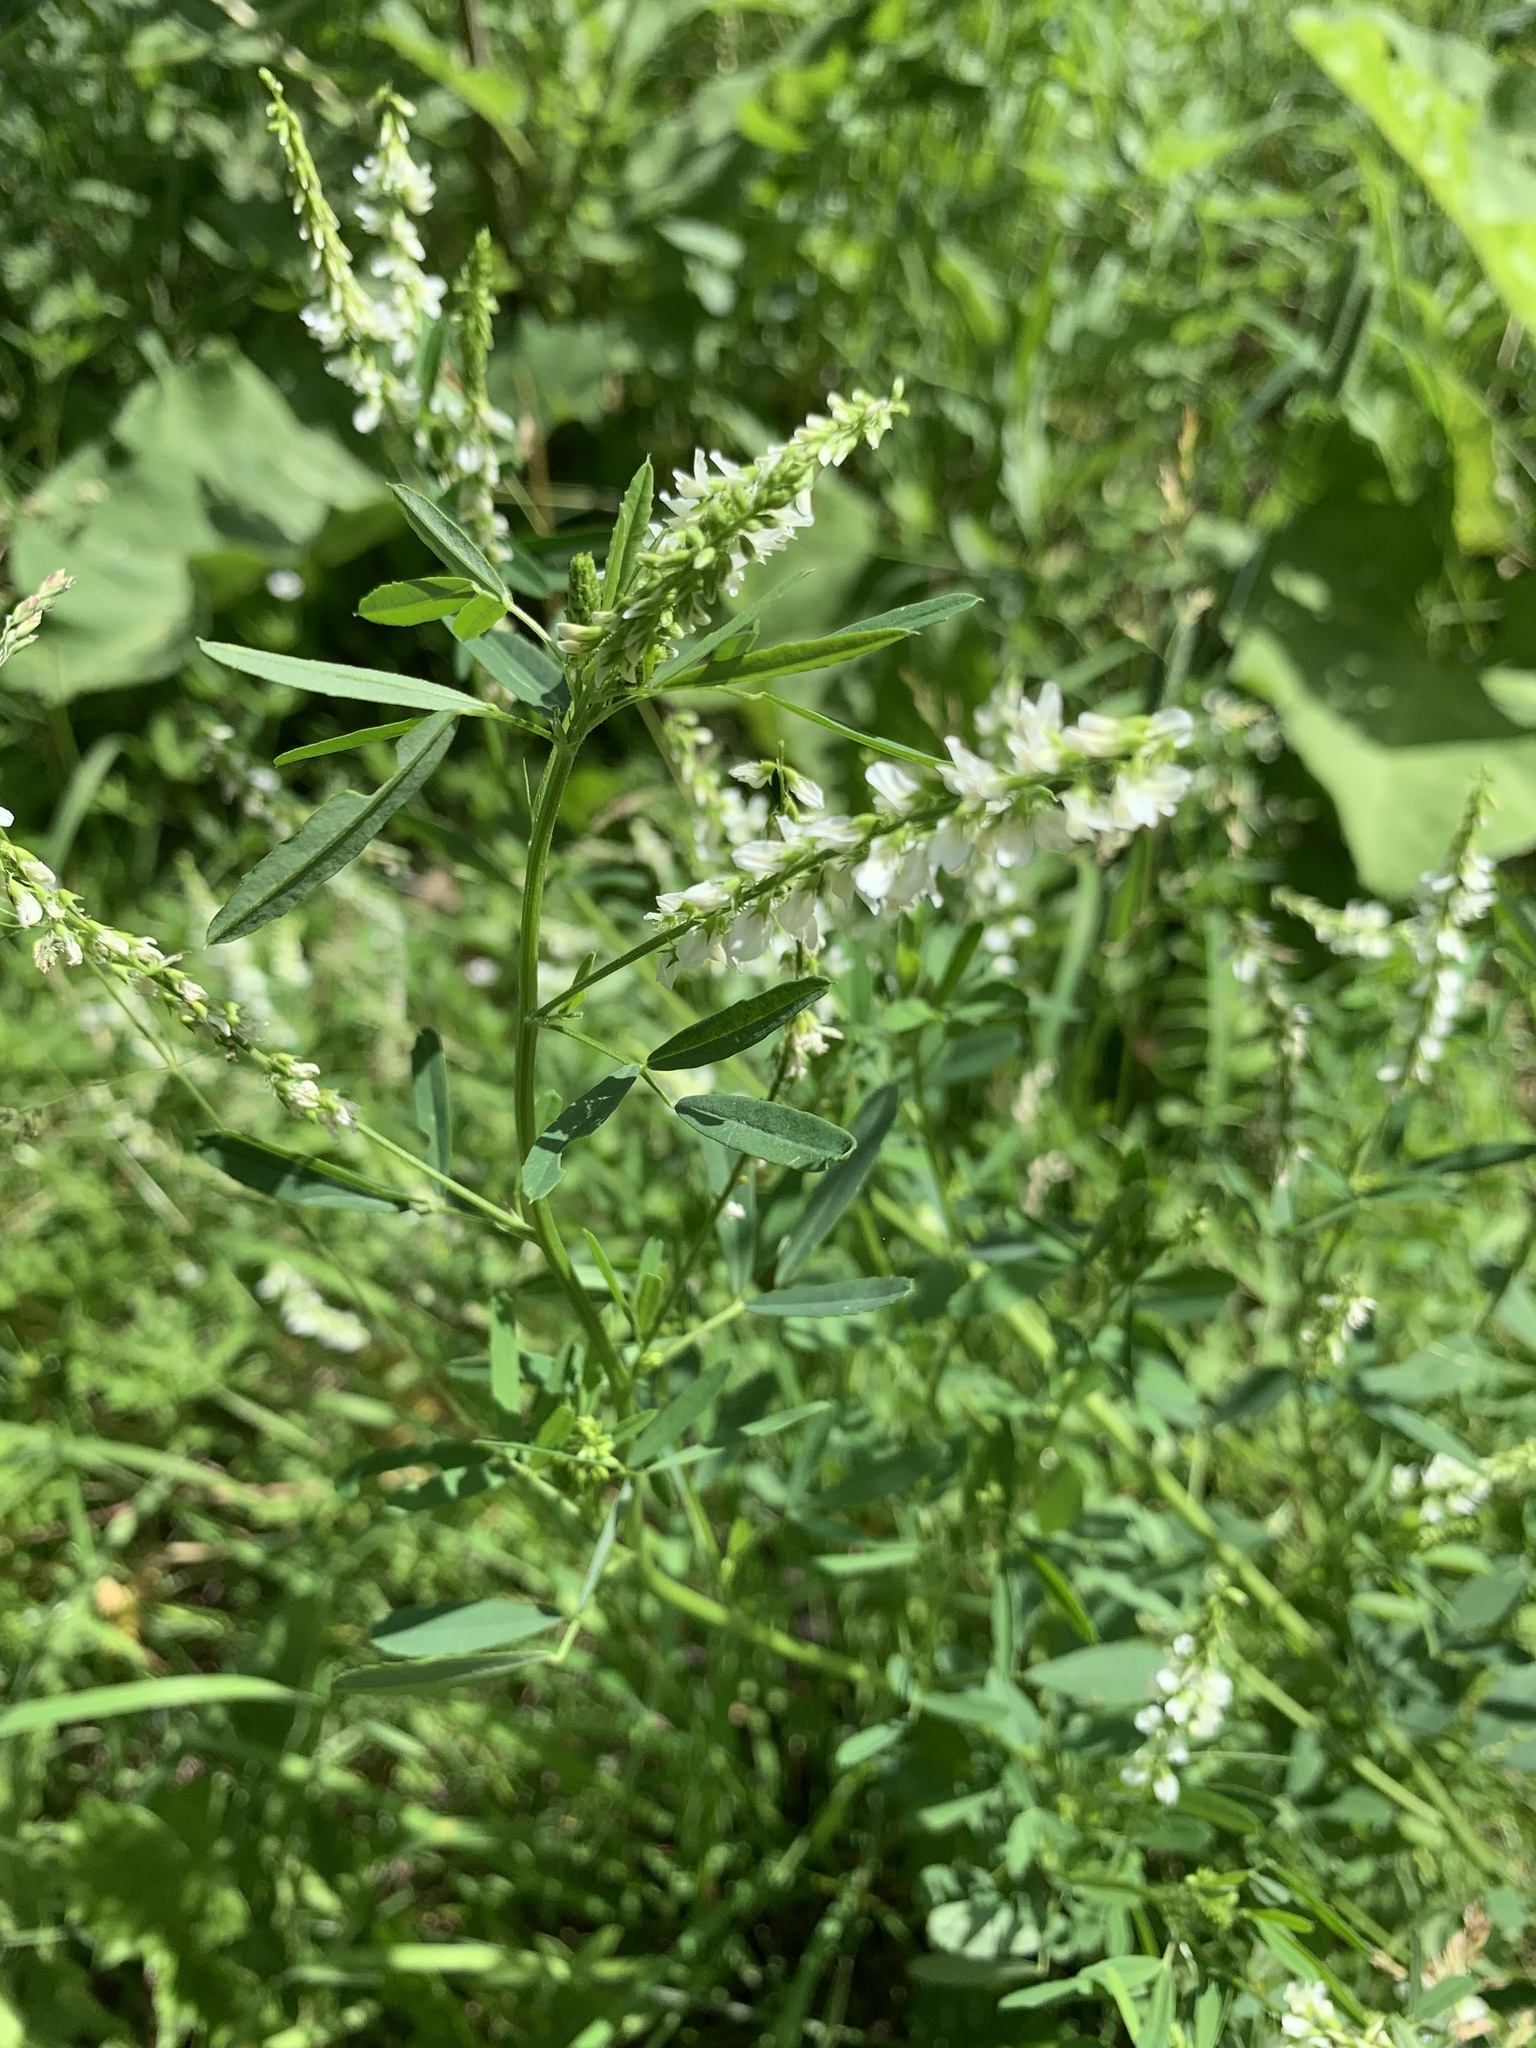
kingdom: Plantae
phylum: Tracheophyta
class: Magnoliopsida
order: Fabales
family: Fabaceae
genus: Melilotus
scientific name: Melilotus albus
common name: White melilot
